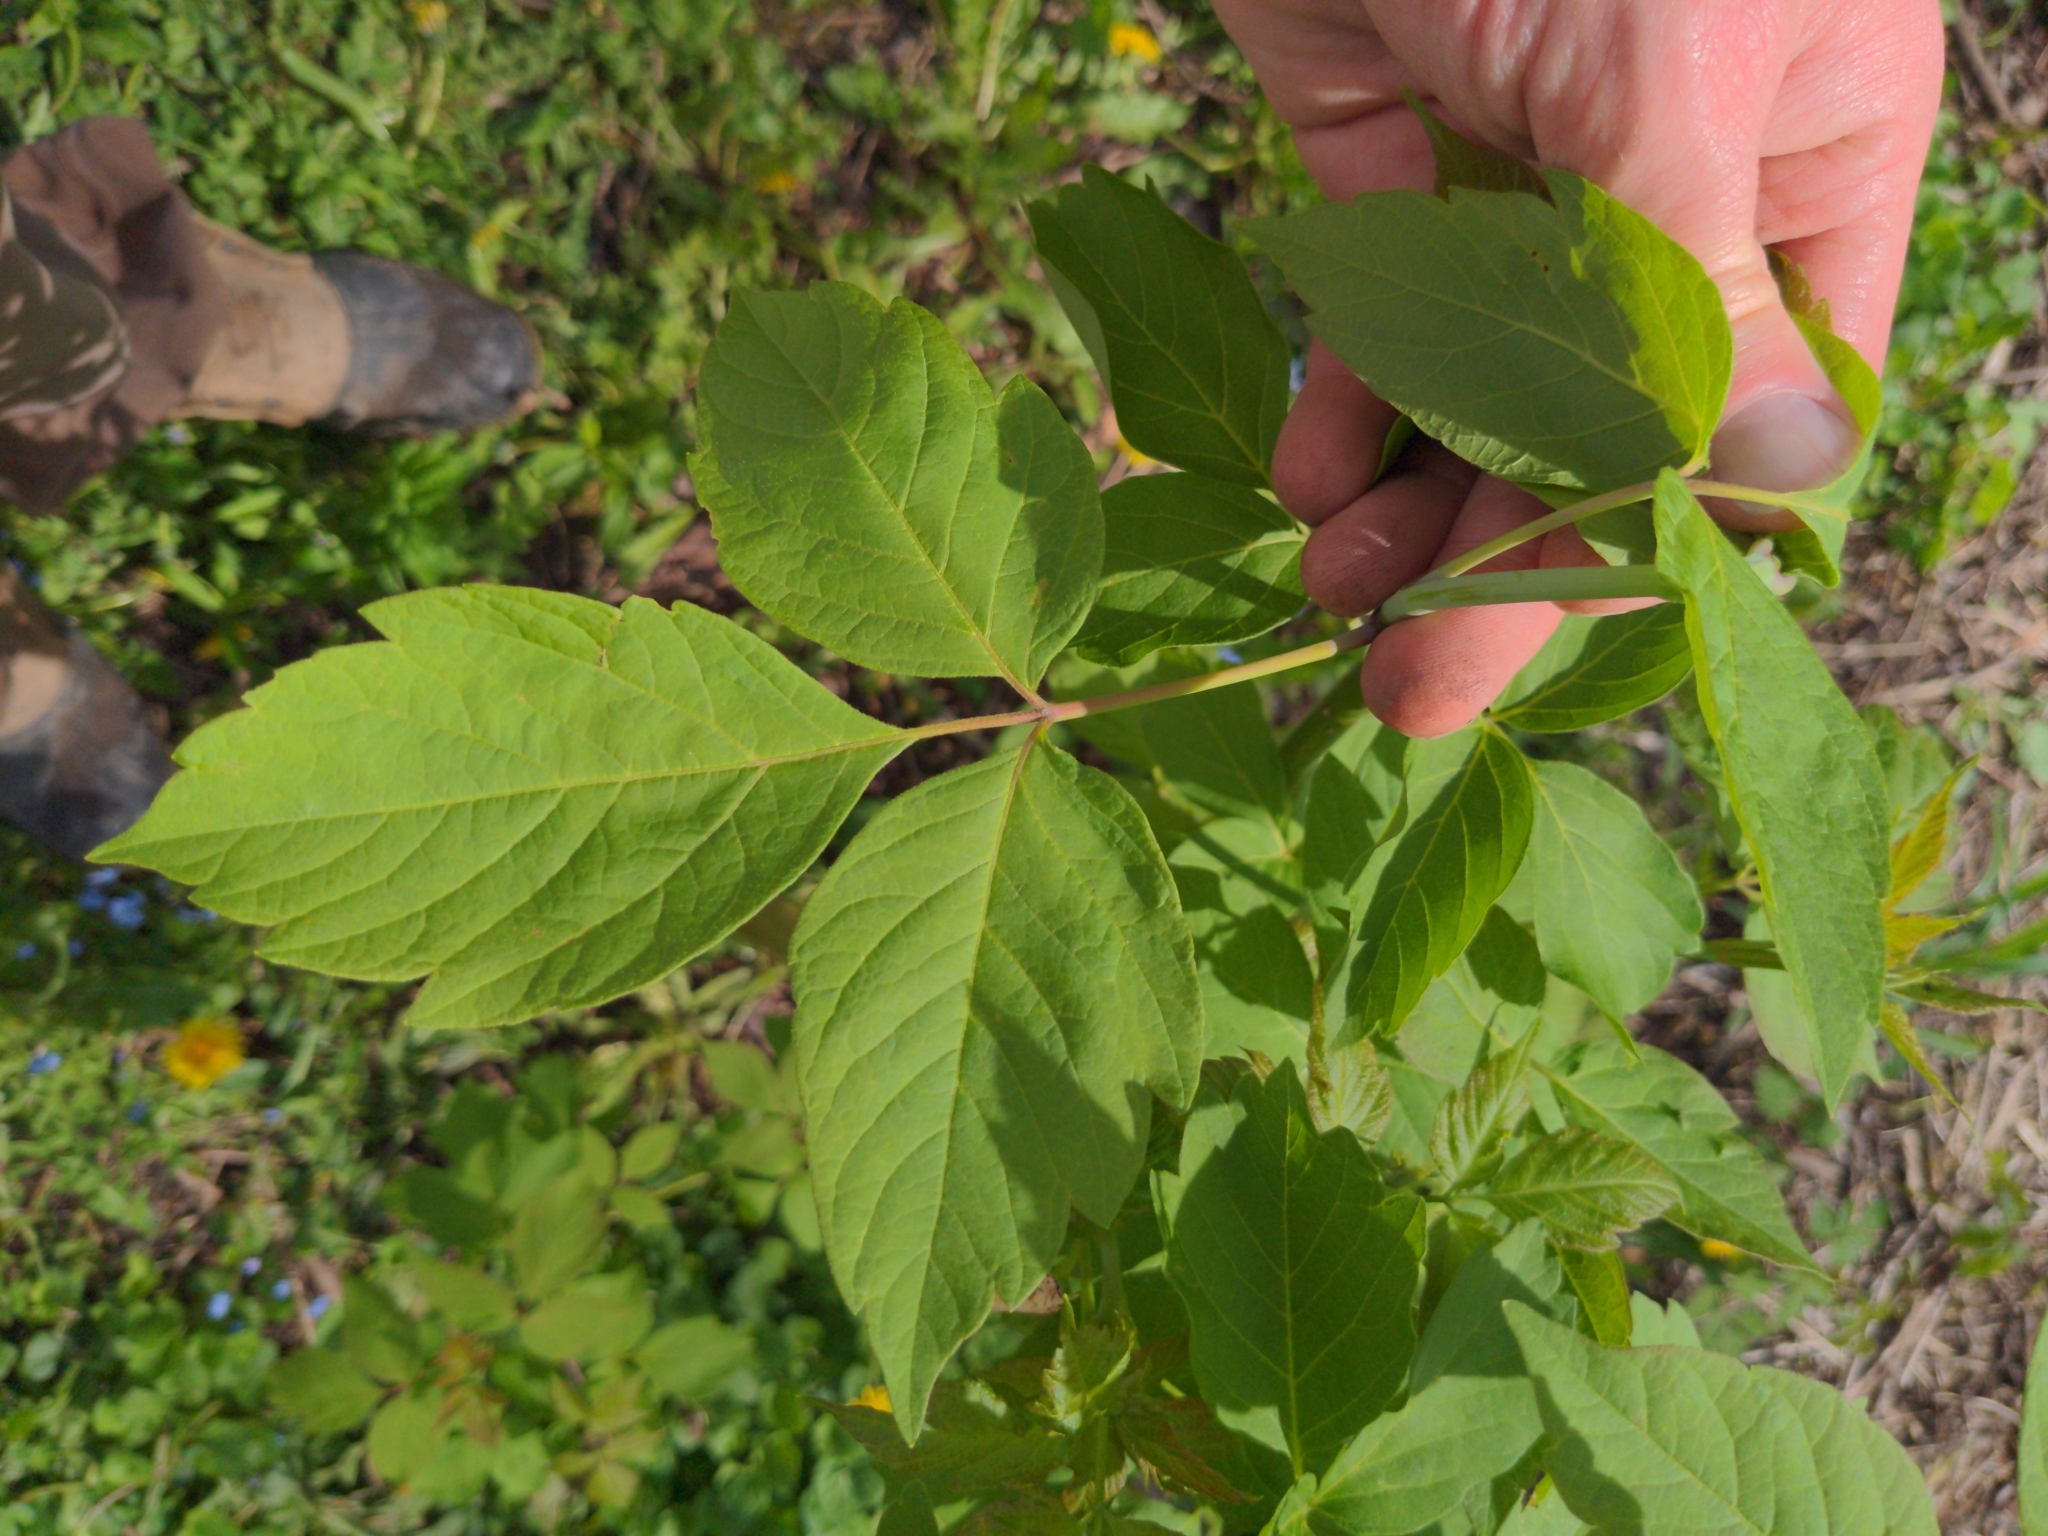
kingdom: Plantae
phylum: Tracheophyta
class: Magnoliopsida
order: Sapindales
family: Sapindaceae
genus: Acer
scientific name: Acer negundo
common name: Ashleaf maple
